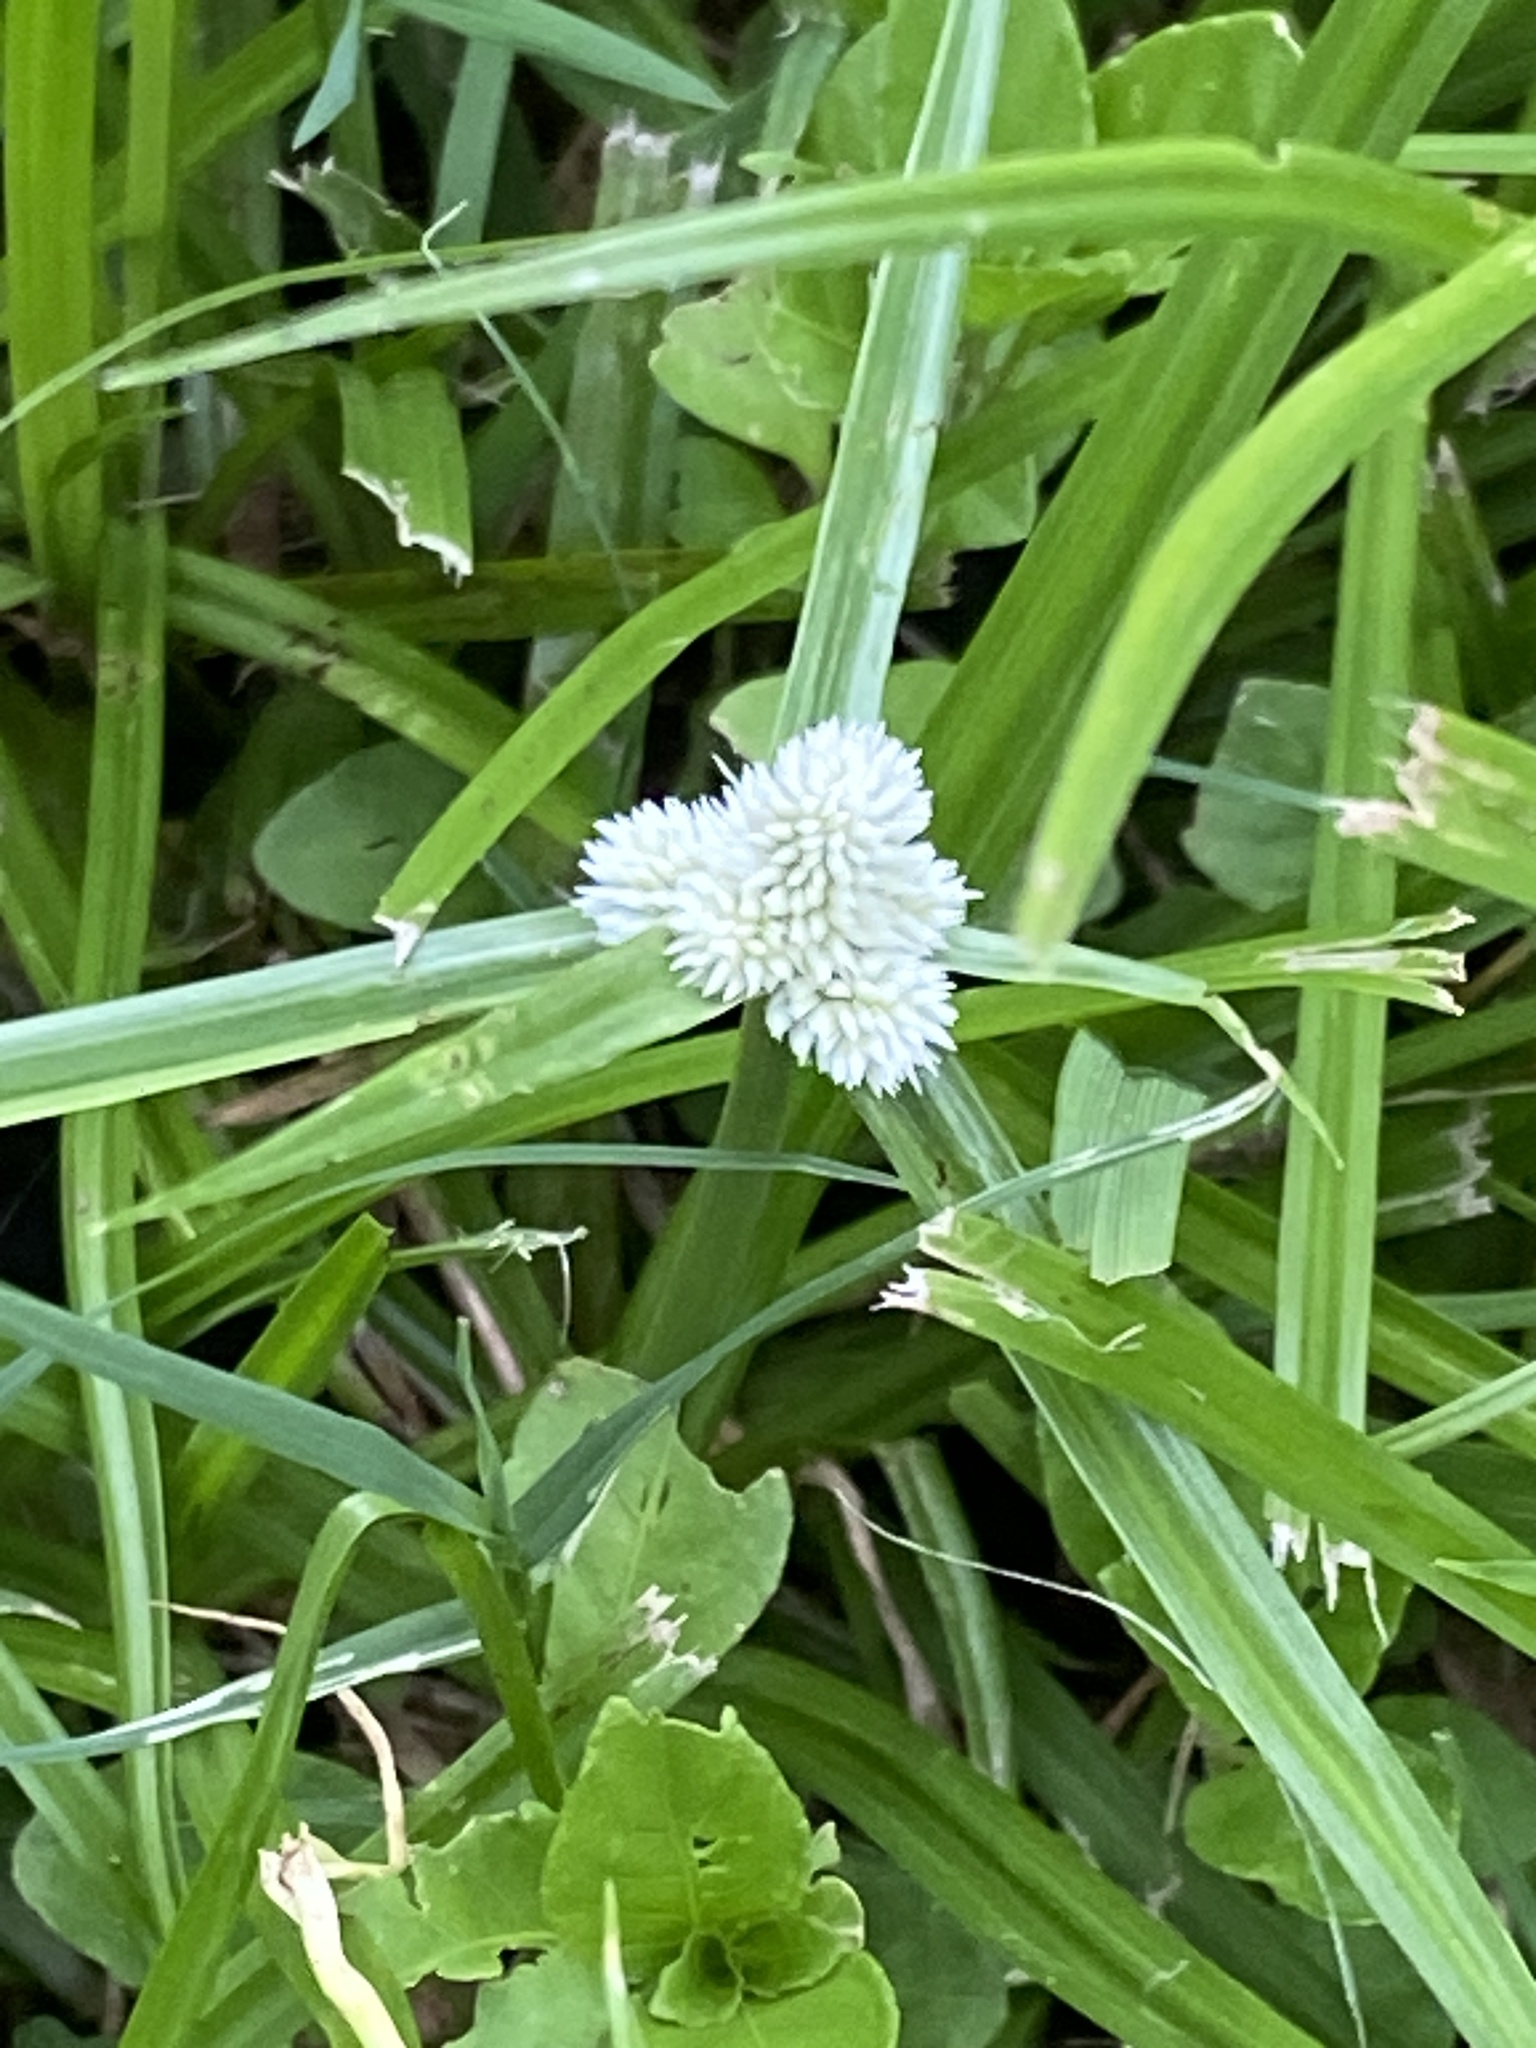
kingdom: Plantae
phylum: Tracheophyta
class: Liliopsida
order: Poales
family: Cyperaceae
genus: Cyperus
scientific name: Cyperus sesquiflorus
